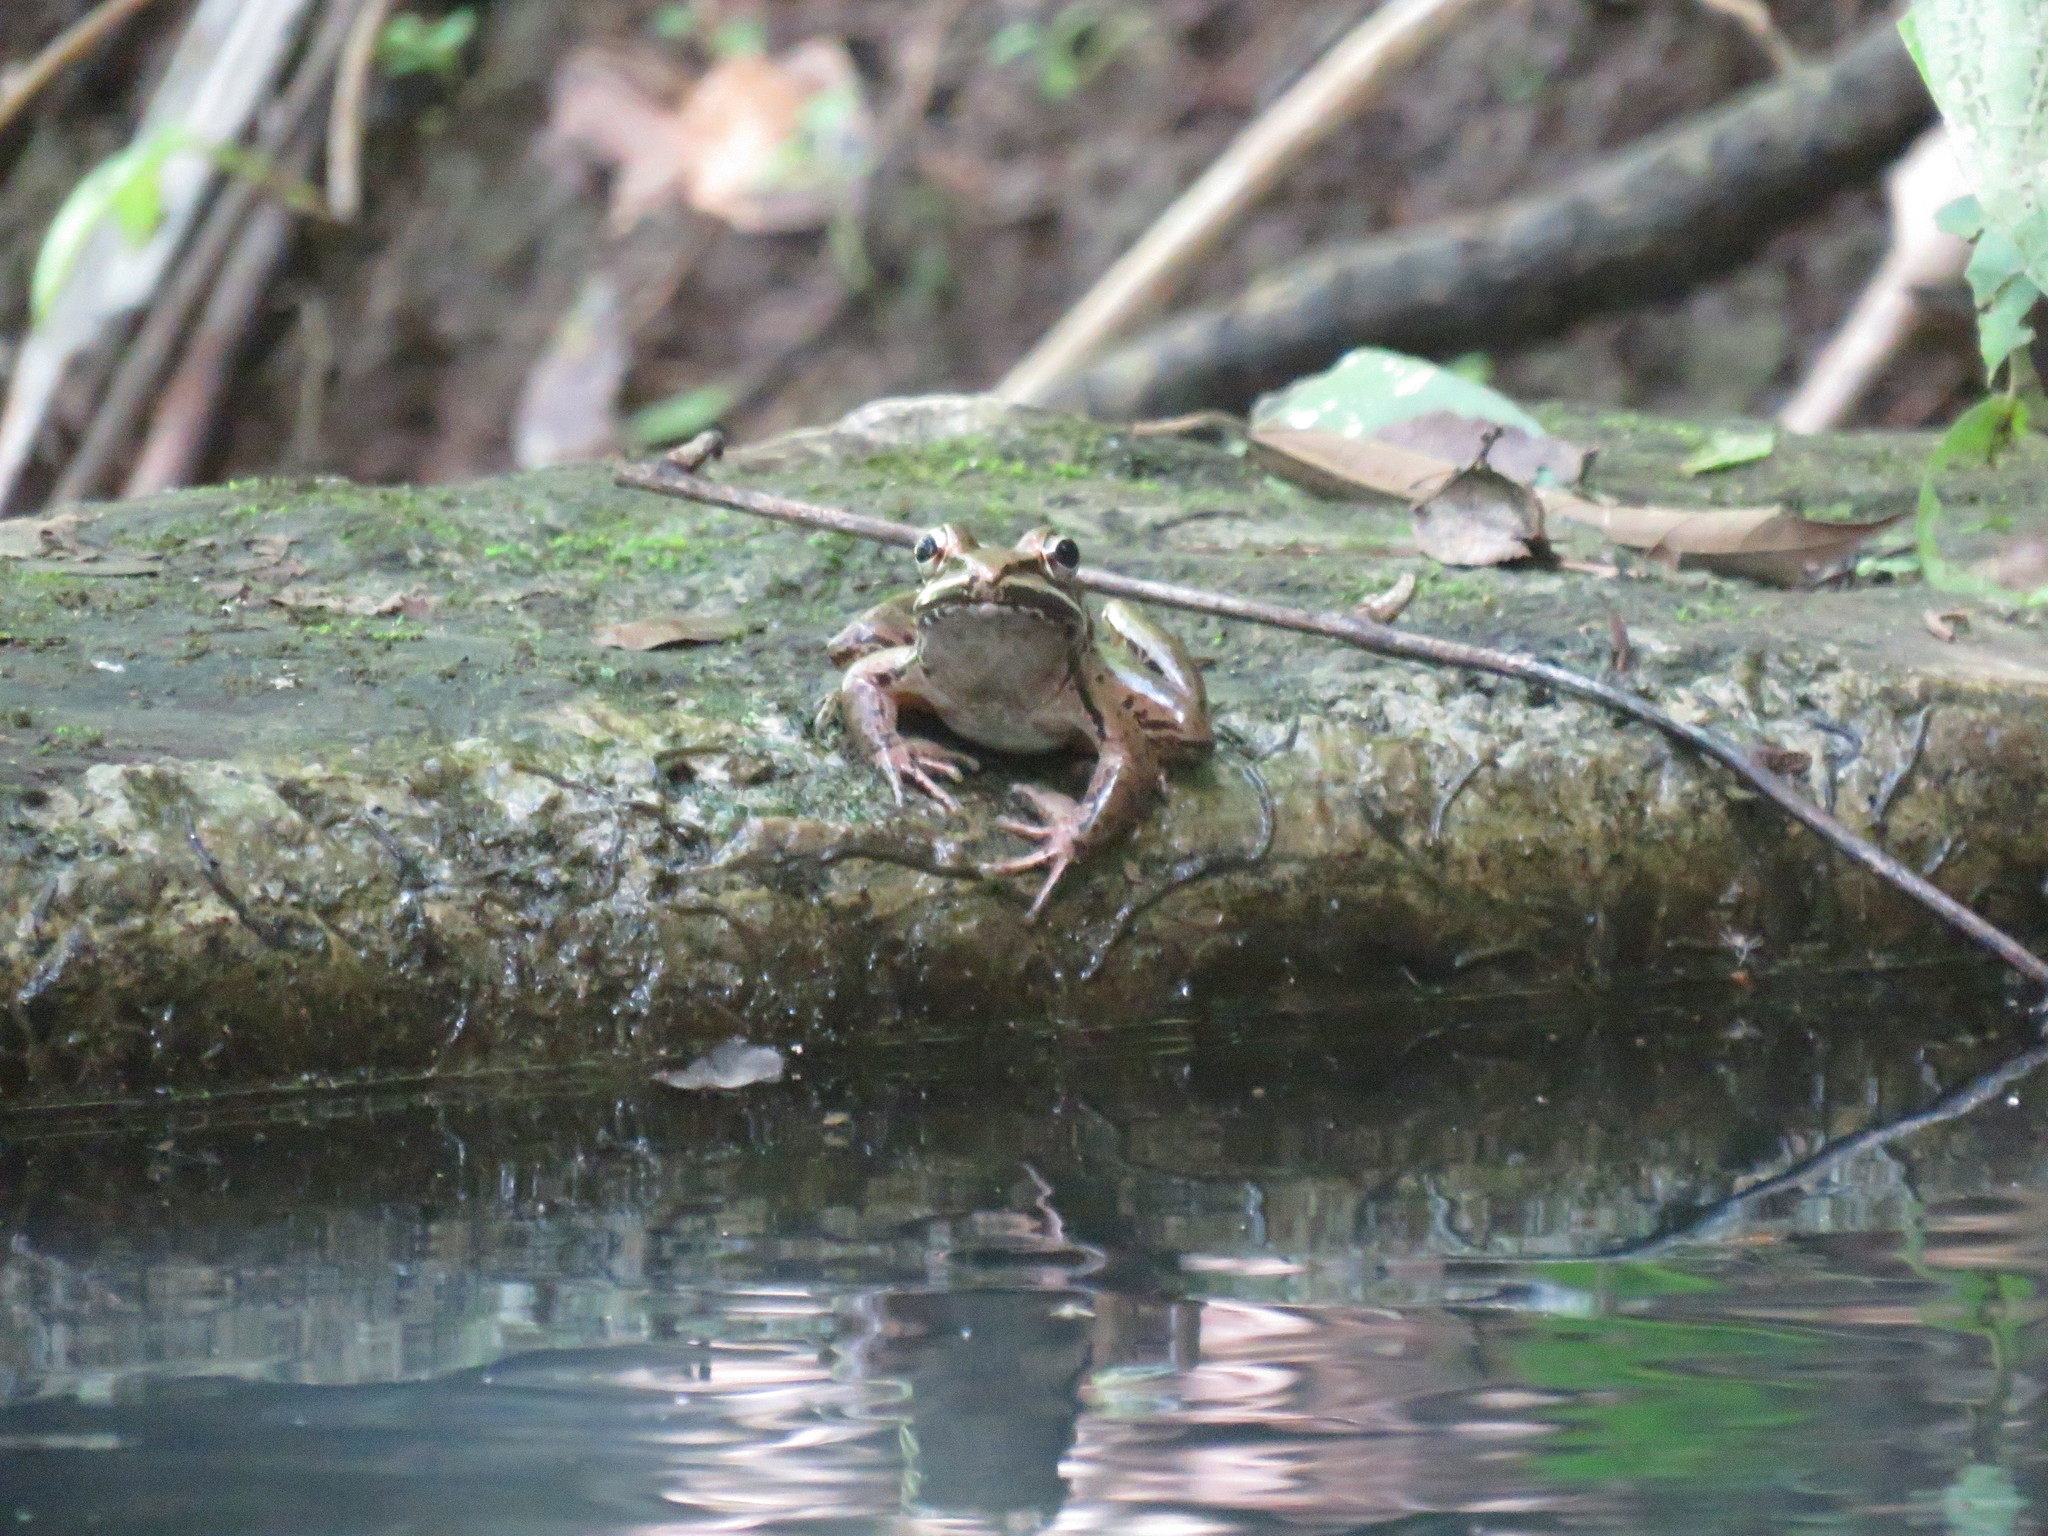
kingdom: Animalia
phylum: Chordata
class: Amphibia
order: Anura
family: Ranidae
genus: Lithobates
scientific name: Lithobates forreri
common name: Forrer's grass frog
